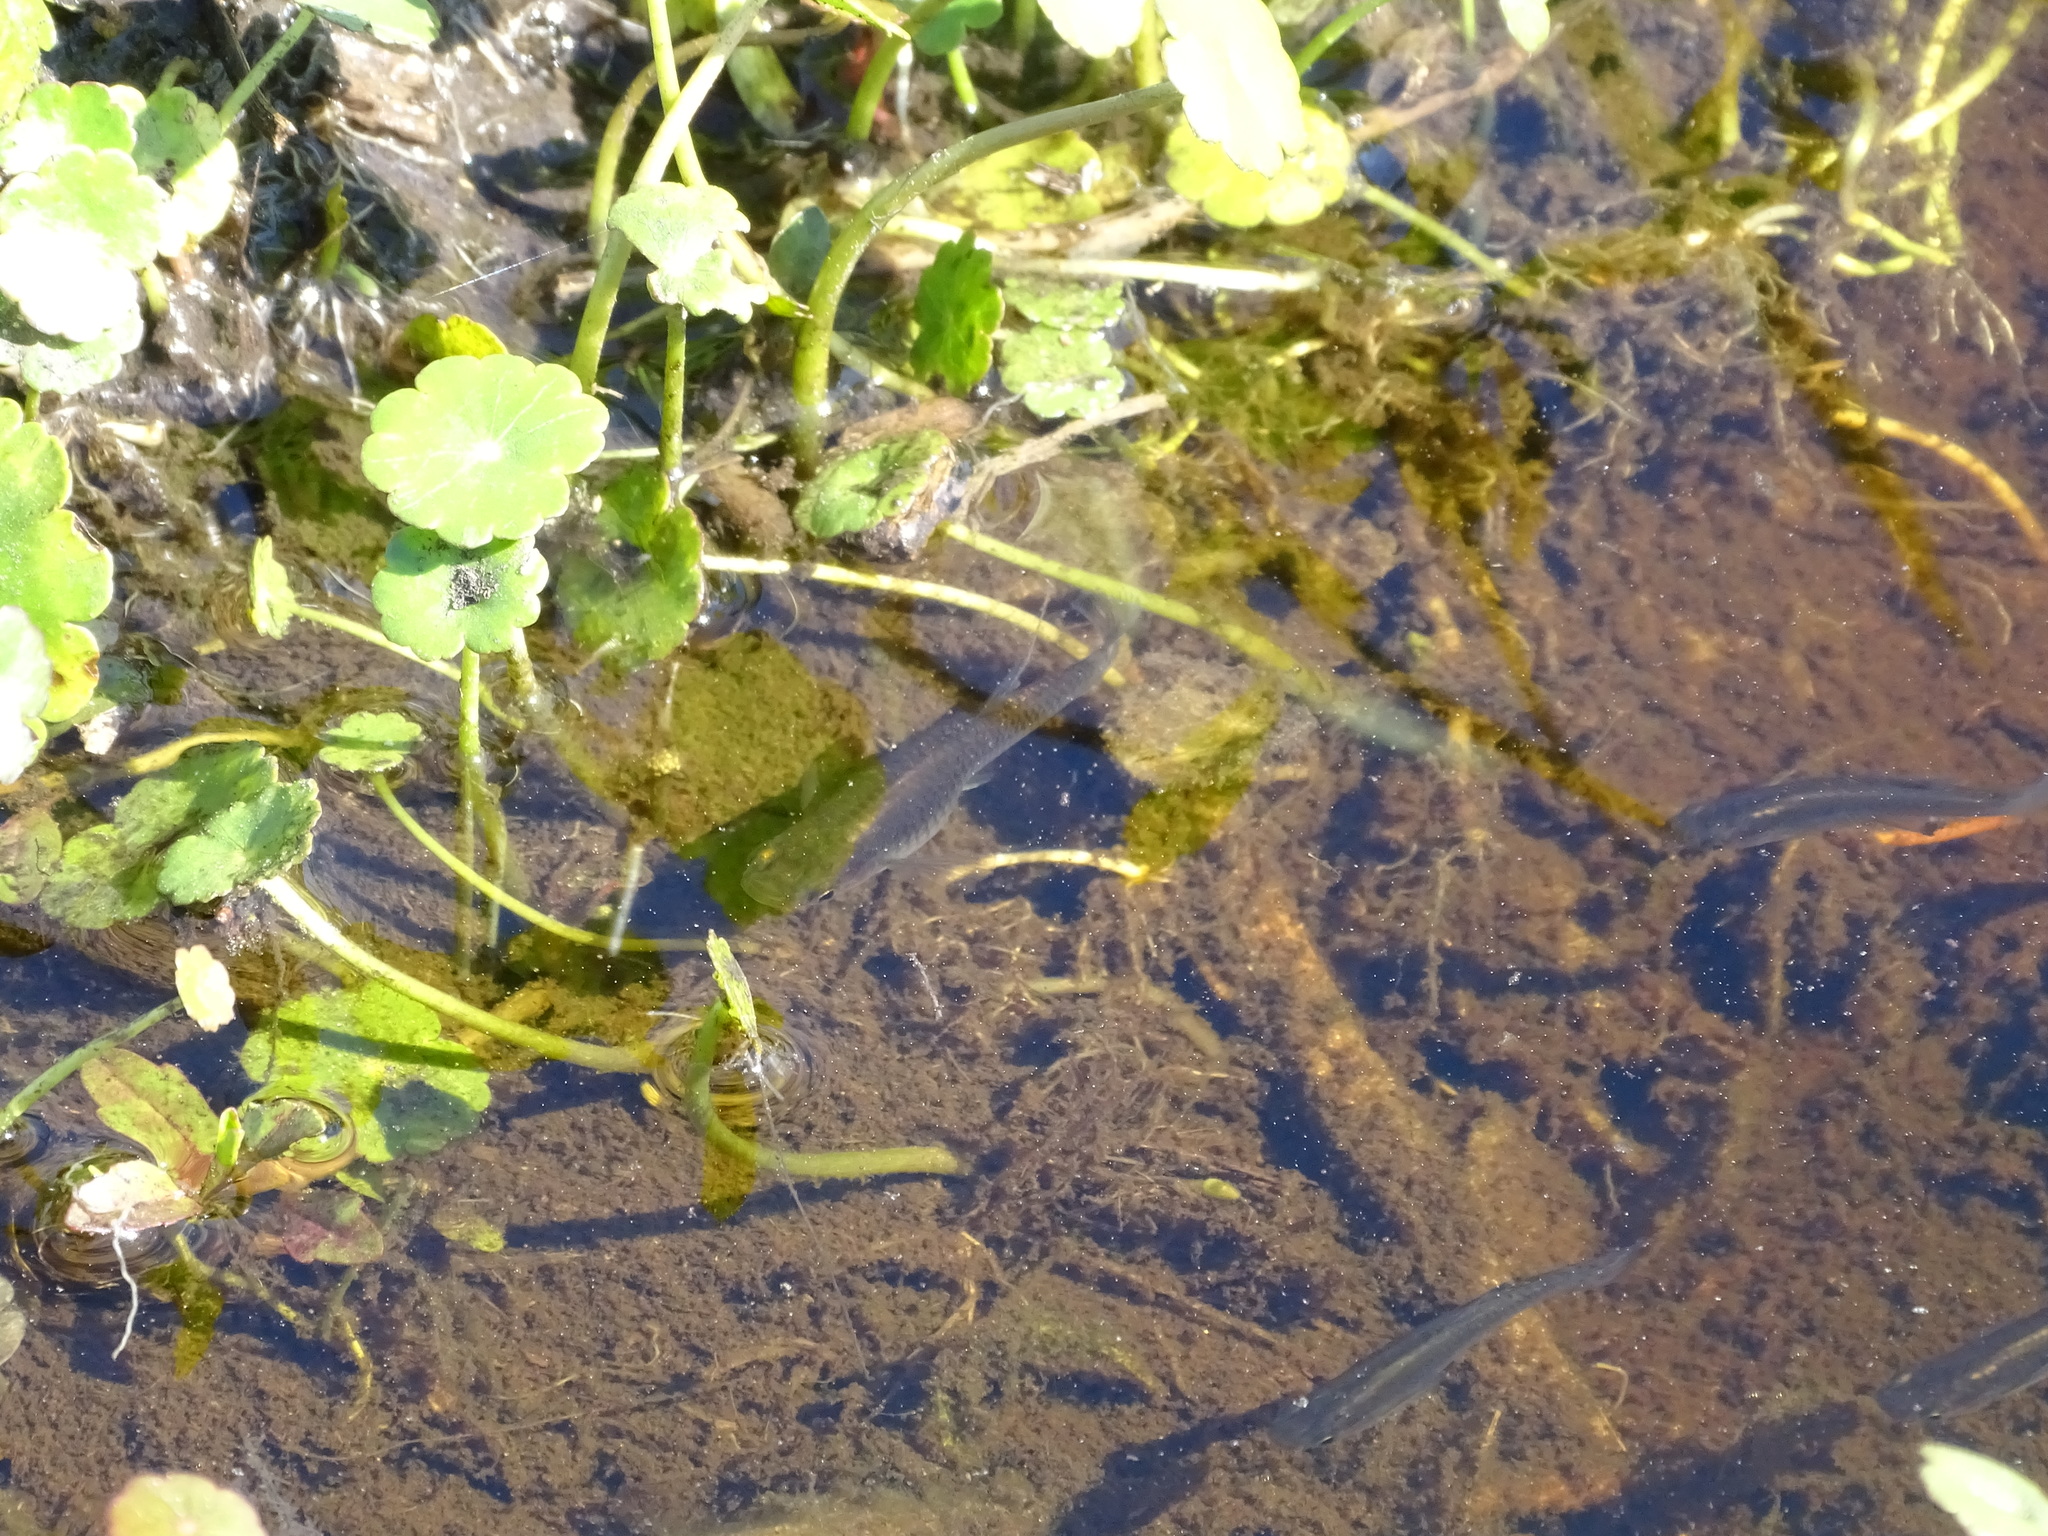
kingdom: Animalia
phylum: Chordata
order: Cyprinodontiformes
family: Poeciliidae
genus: Gambusia
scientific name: Gambusia holbrooki
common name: Eastern mosquitofish
